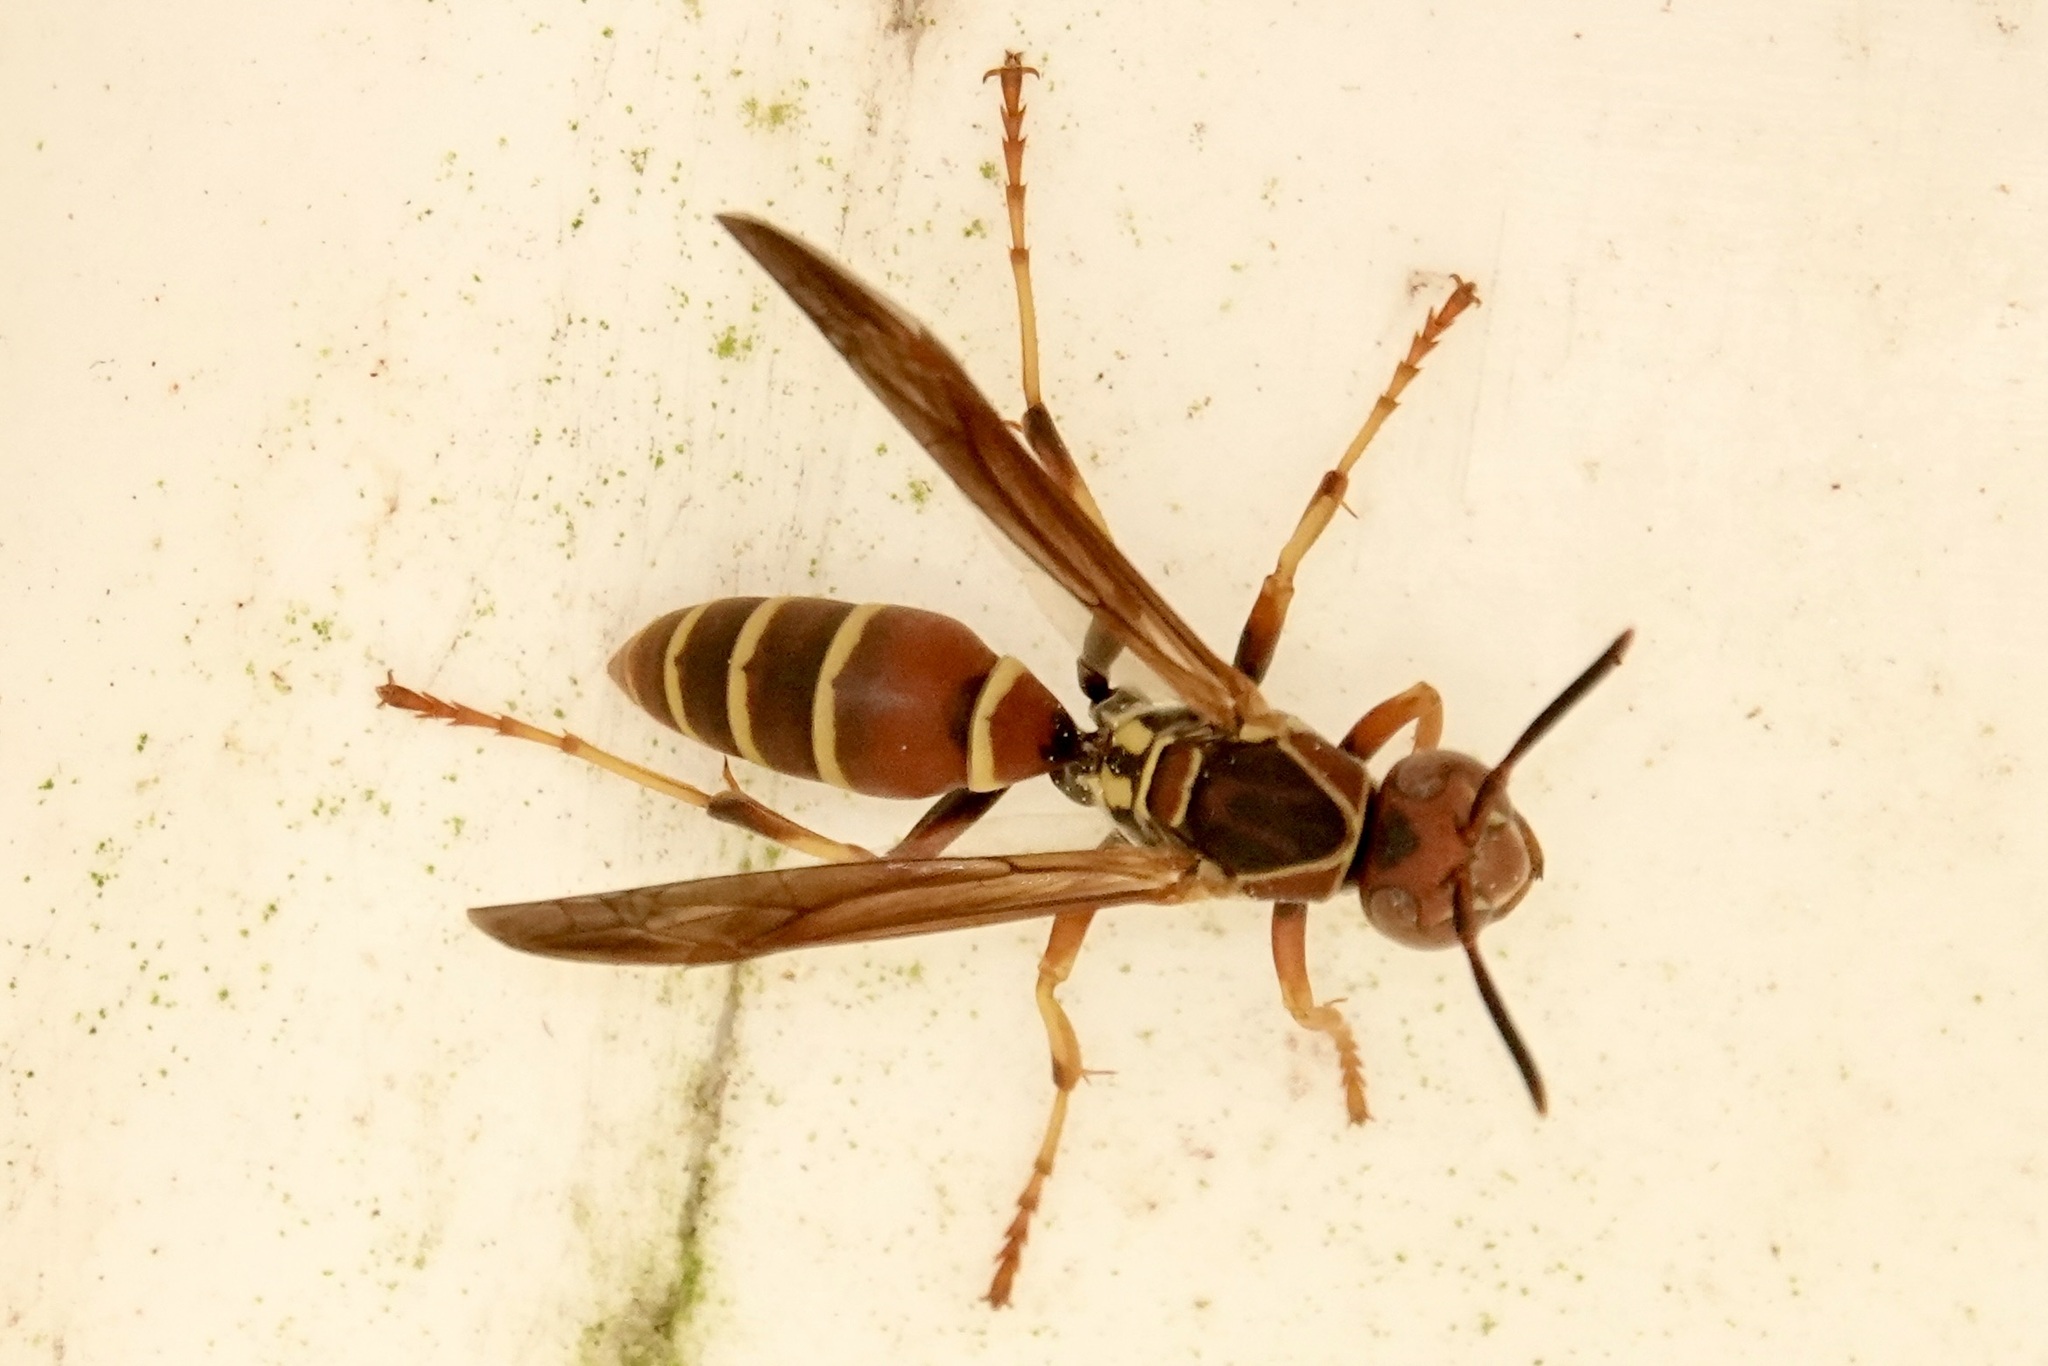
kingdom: Animalia
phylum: Arthropoda
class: Insecta
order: Hymenoptera
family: Eumenidae
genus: Polistes
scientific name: Polistes dorsalis
